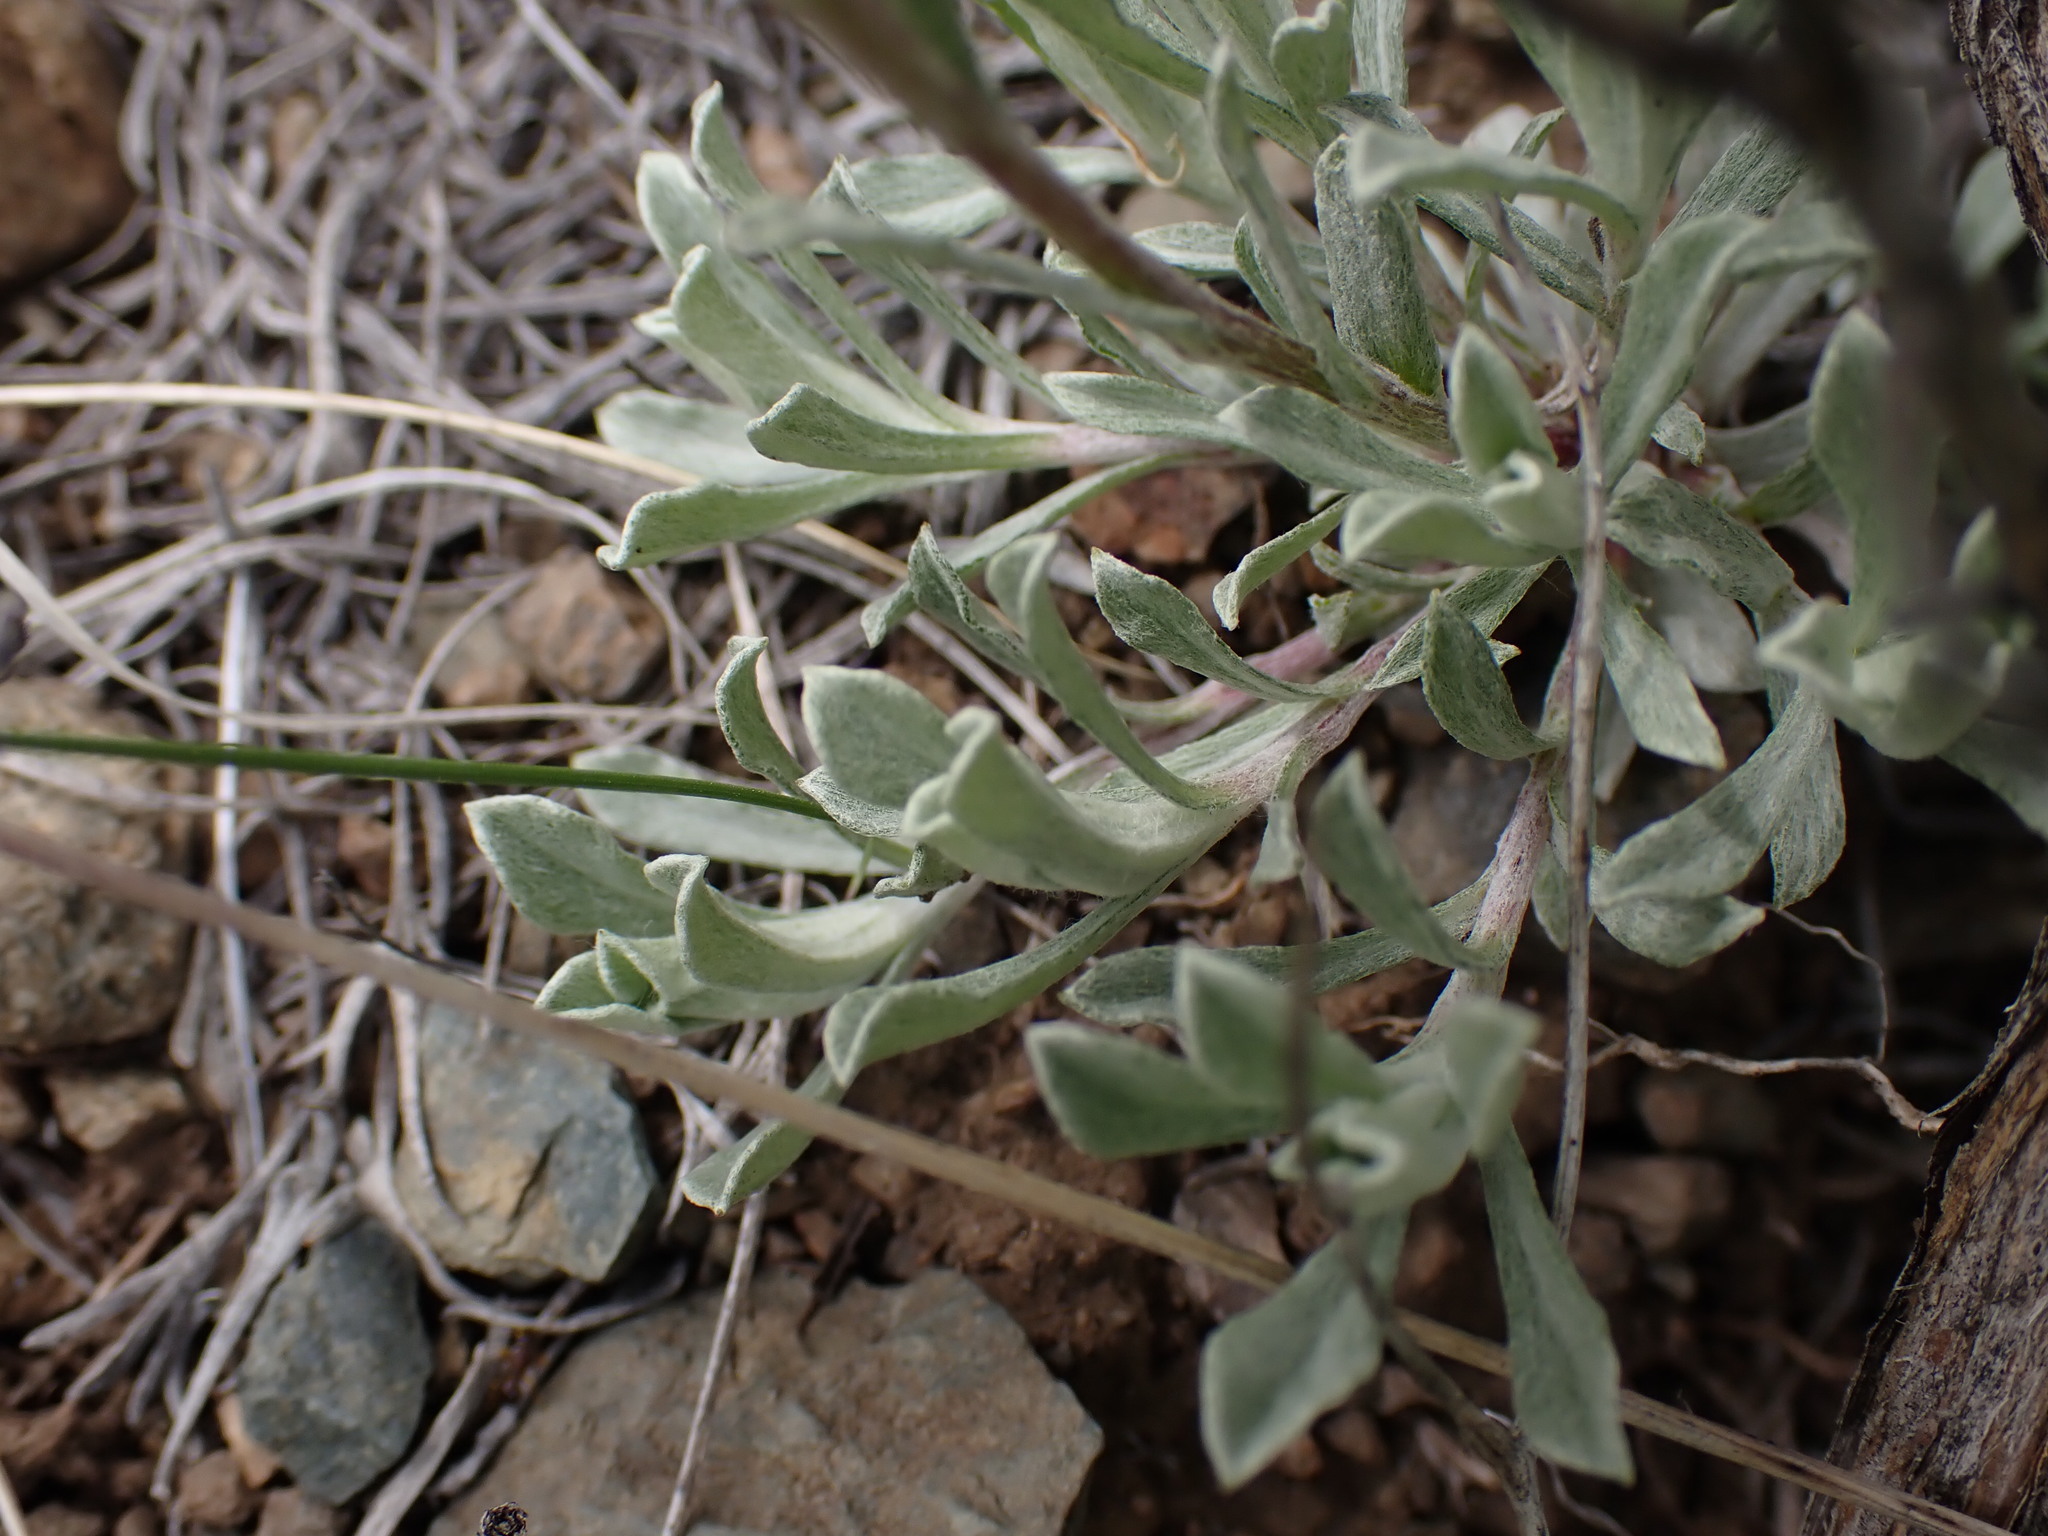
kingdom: Plantae
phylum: Tracheophyta
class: Magnoliopsida
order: Asterales
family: Asteraceae
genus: Antennaria
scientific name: Antennaria umbrinella
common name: Brown pussytoes
